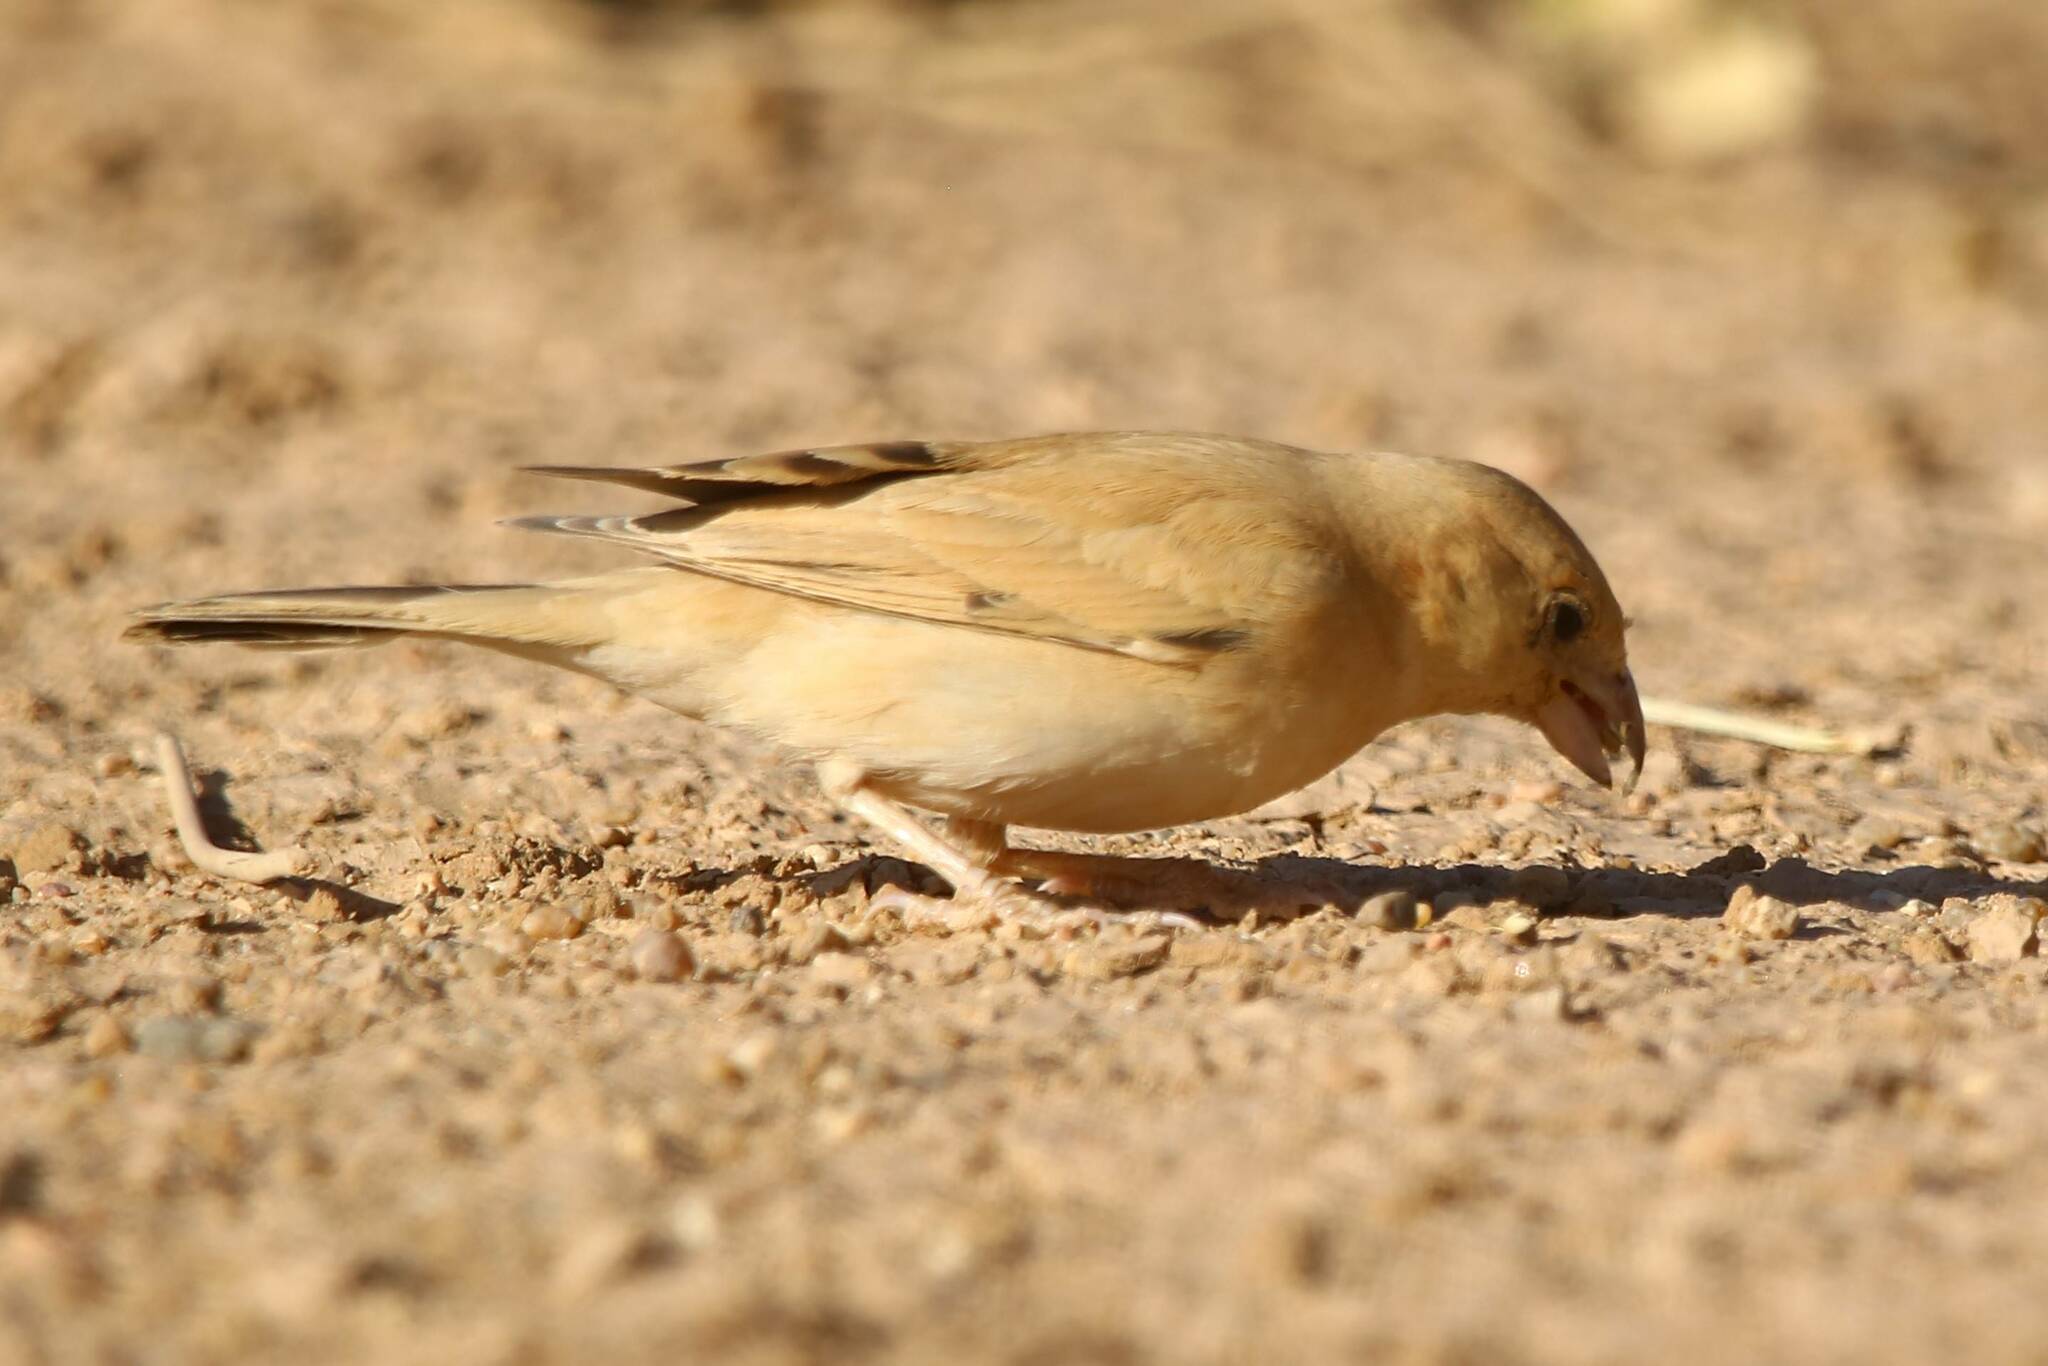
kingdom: Animalia
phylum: Chordata
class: Aves
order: Passeriformes
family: Passeridae
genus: Passer
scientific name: Passer simplex
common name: Desert sparrow
